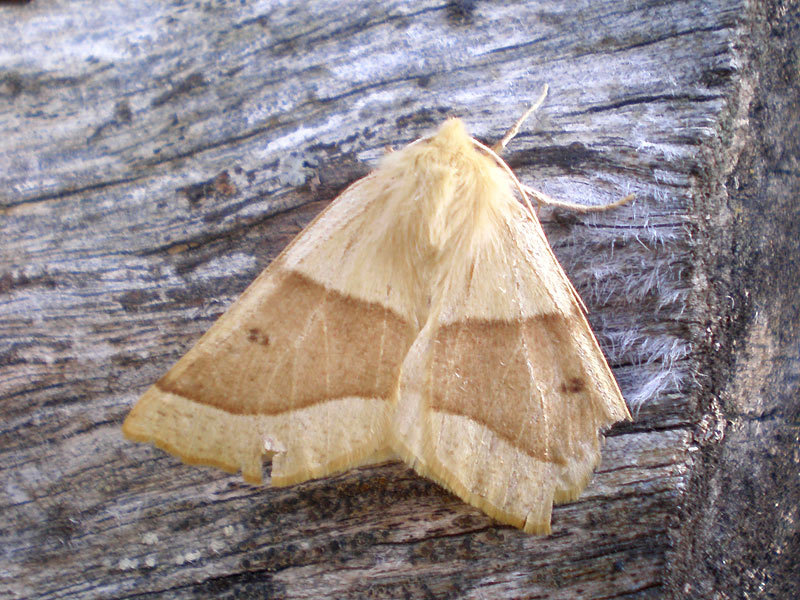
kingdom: Animalia
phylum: Arthropoda
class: Insecta
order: Lepidoptera
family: Geometridae
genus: Crocallis
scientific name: Crocallis elinguaria
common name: Scalloped oak
